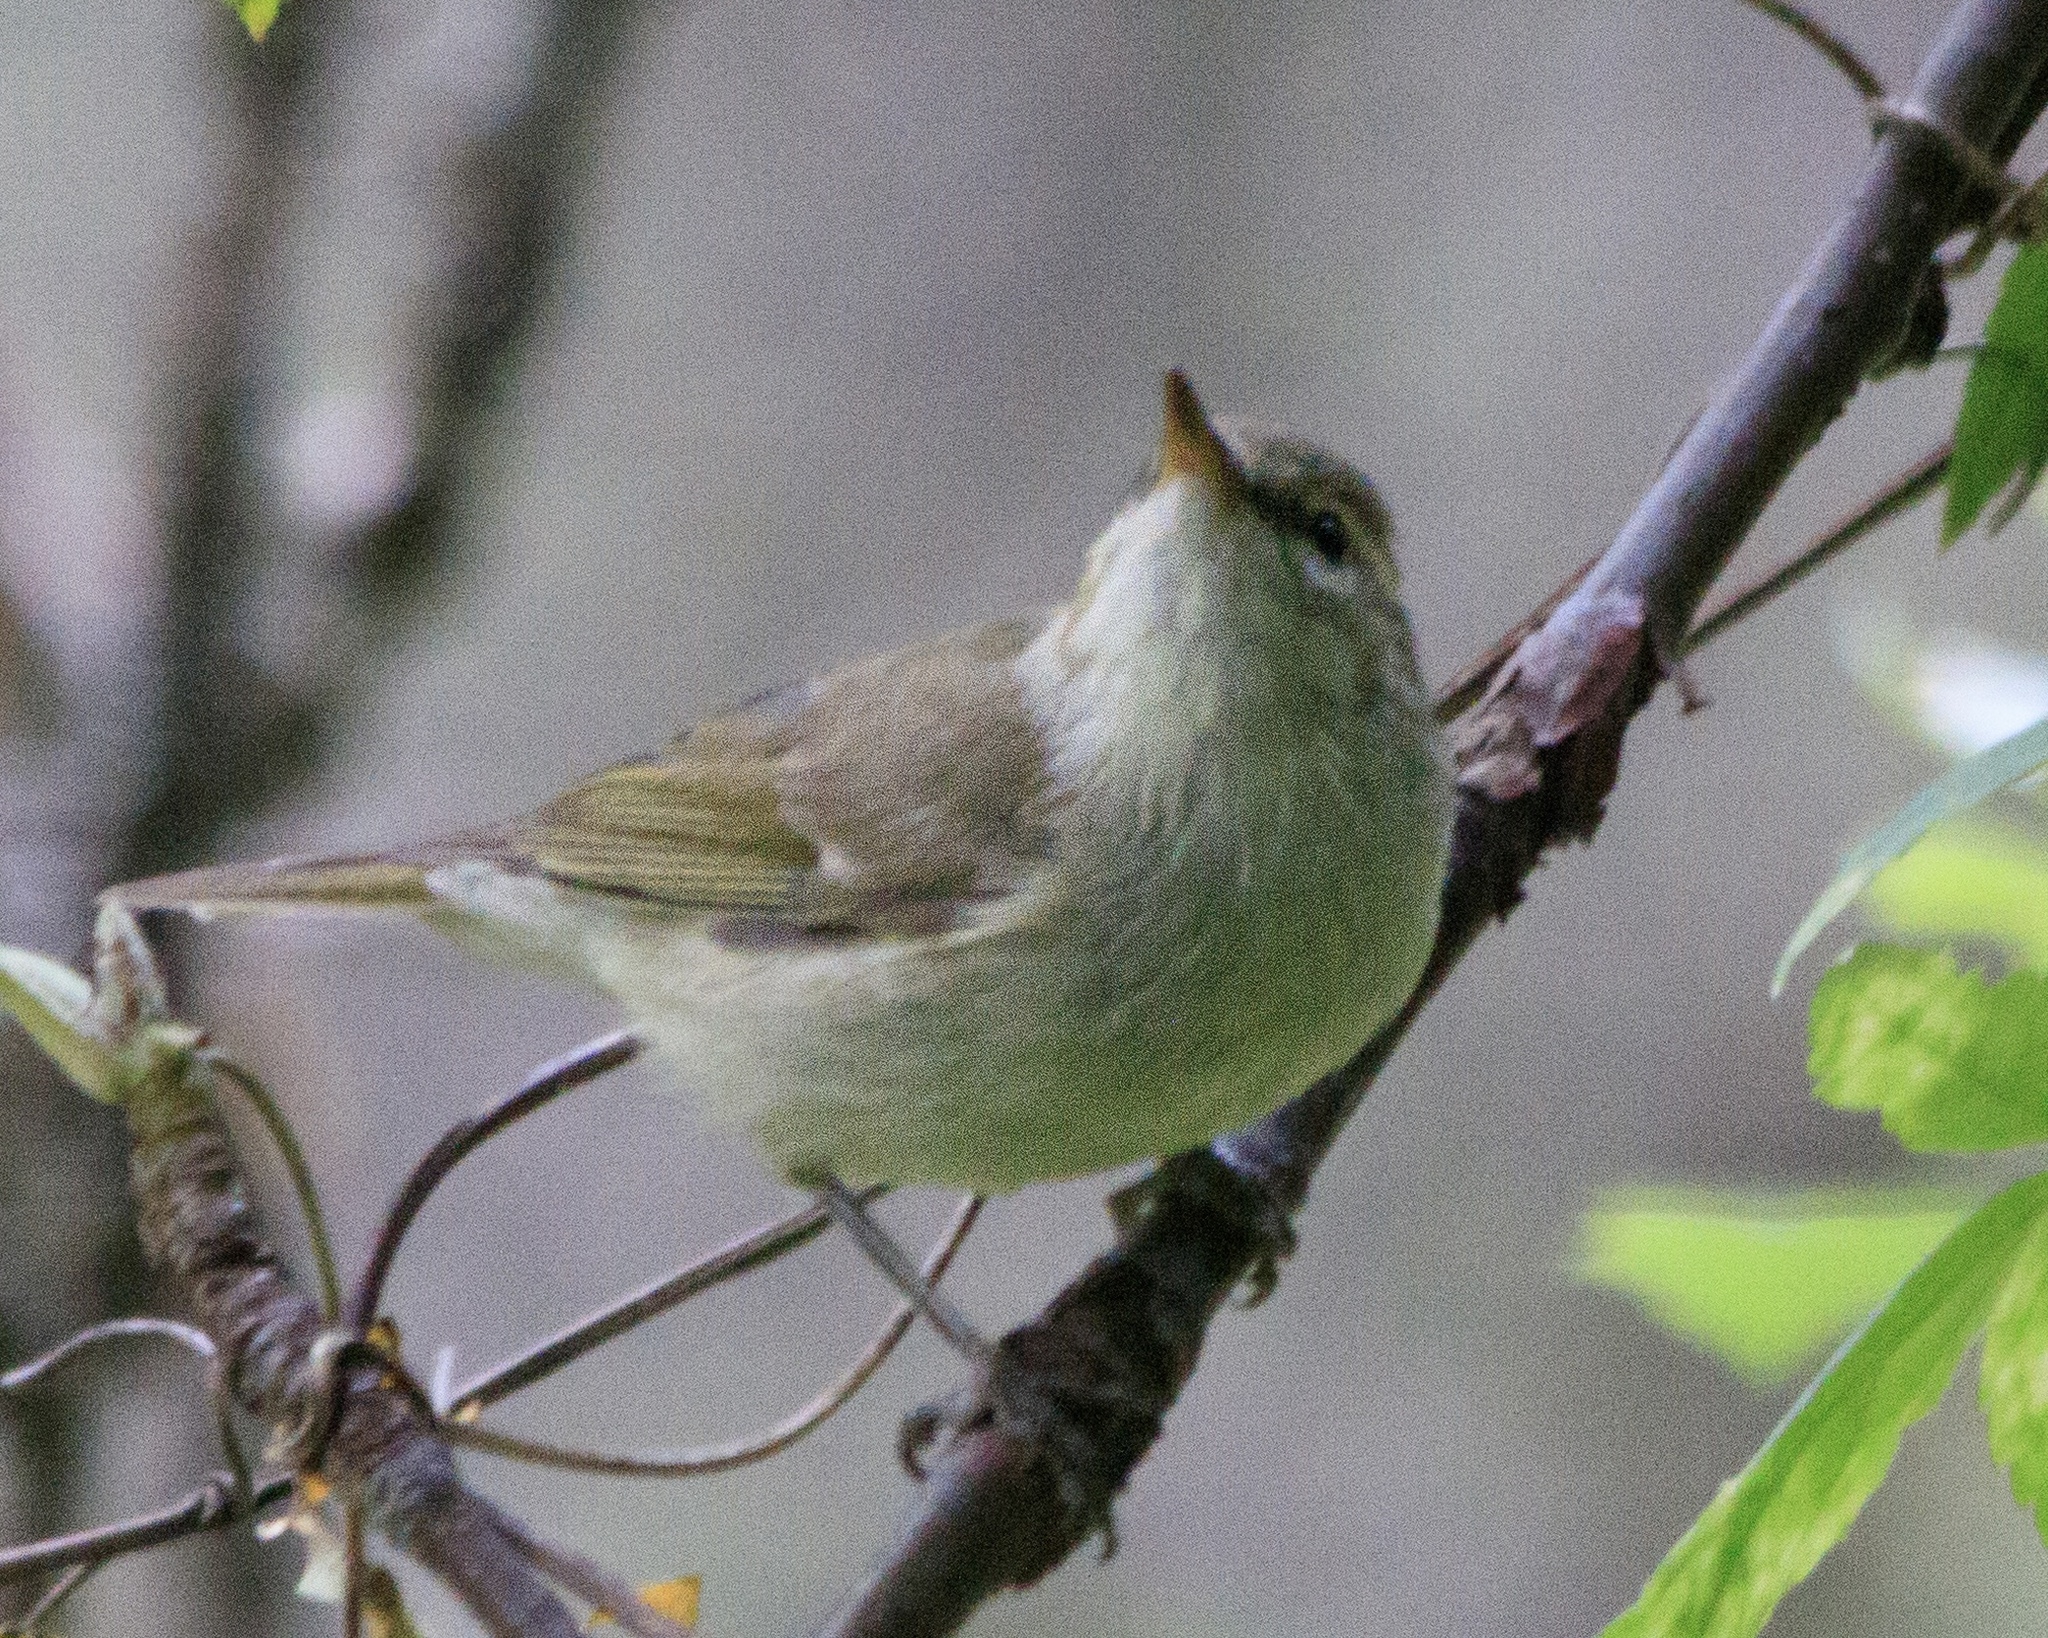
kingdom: Animalia
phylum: Chordata
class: Aves
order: Passeriformes
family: Phylloscopidae
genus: Phylloscopus
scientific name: Phylloscopus trochiloides
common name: Greenish warbler
